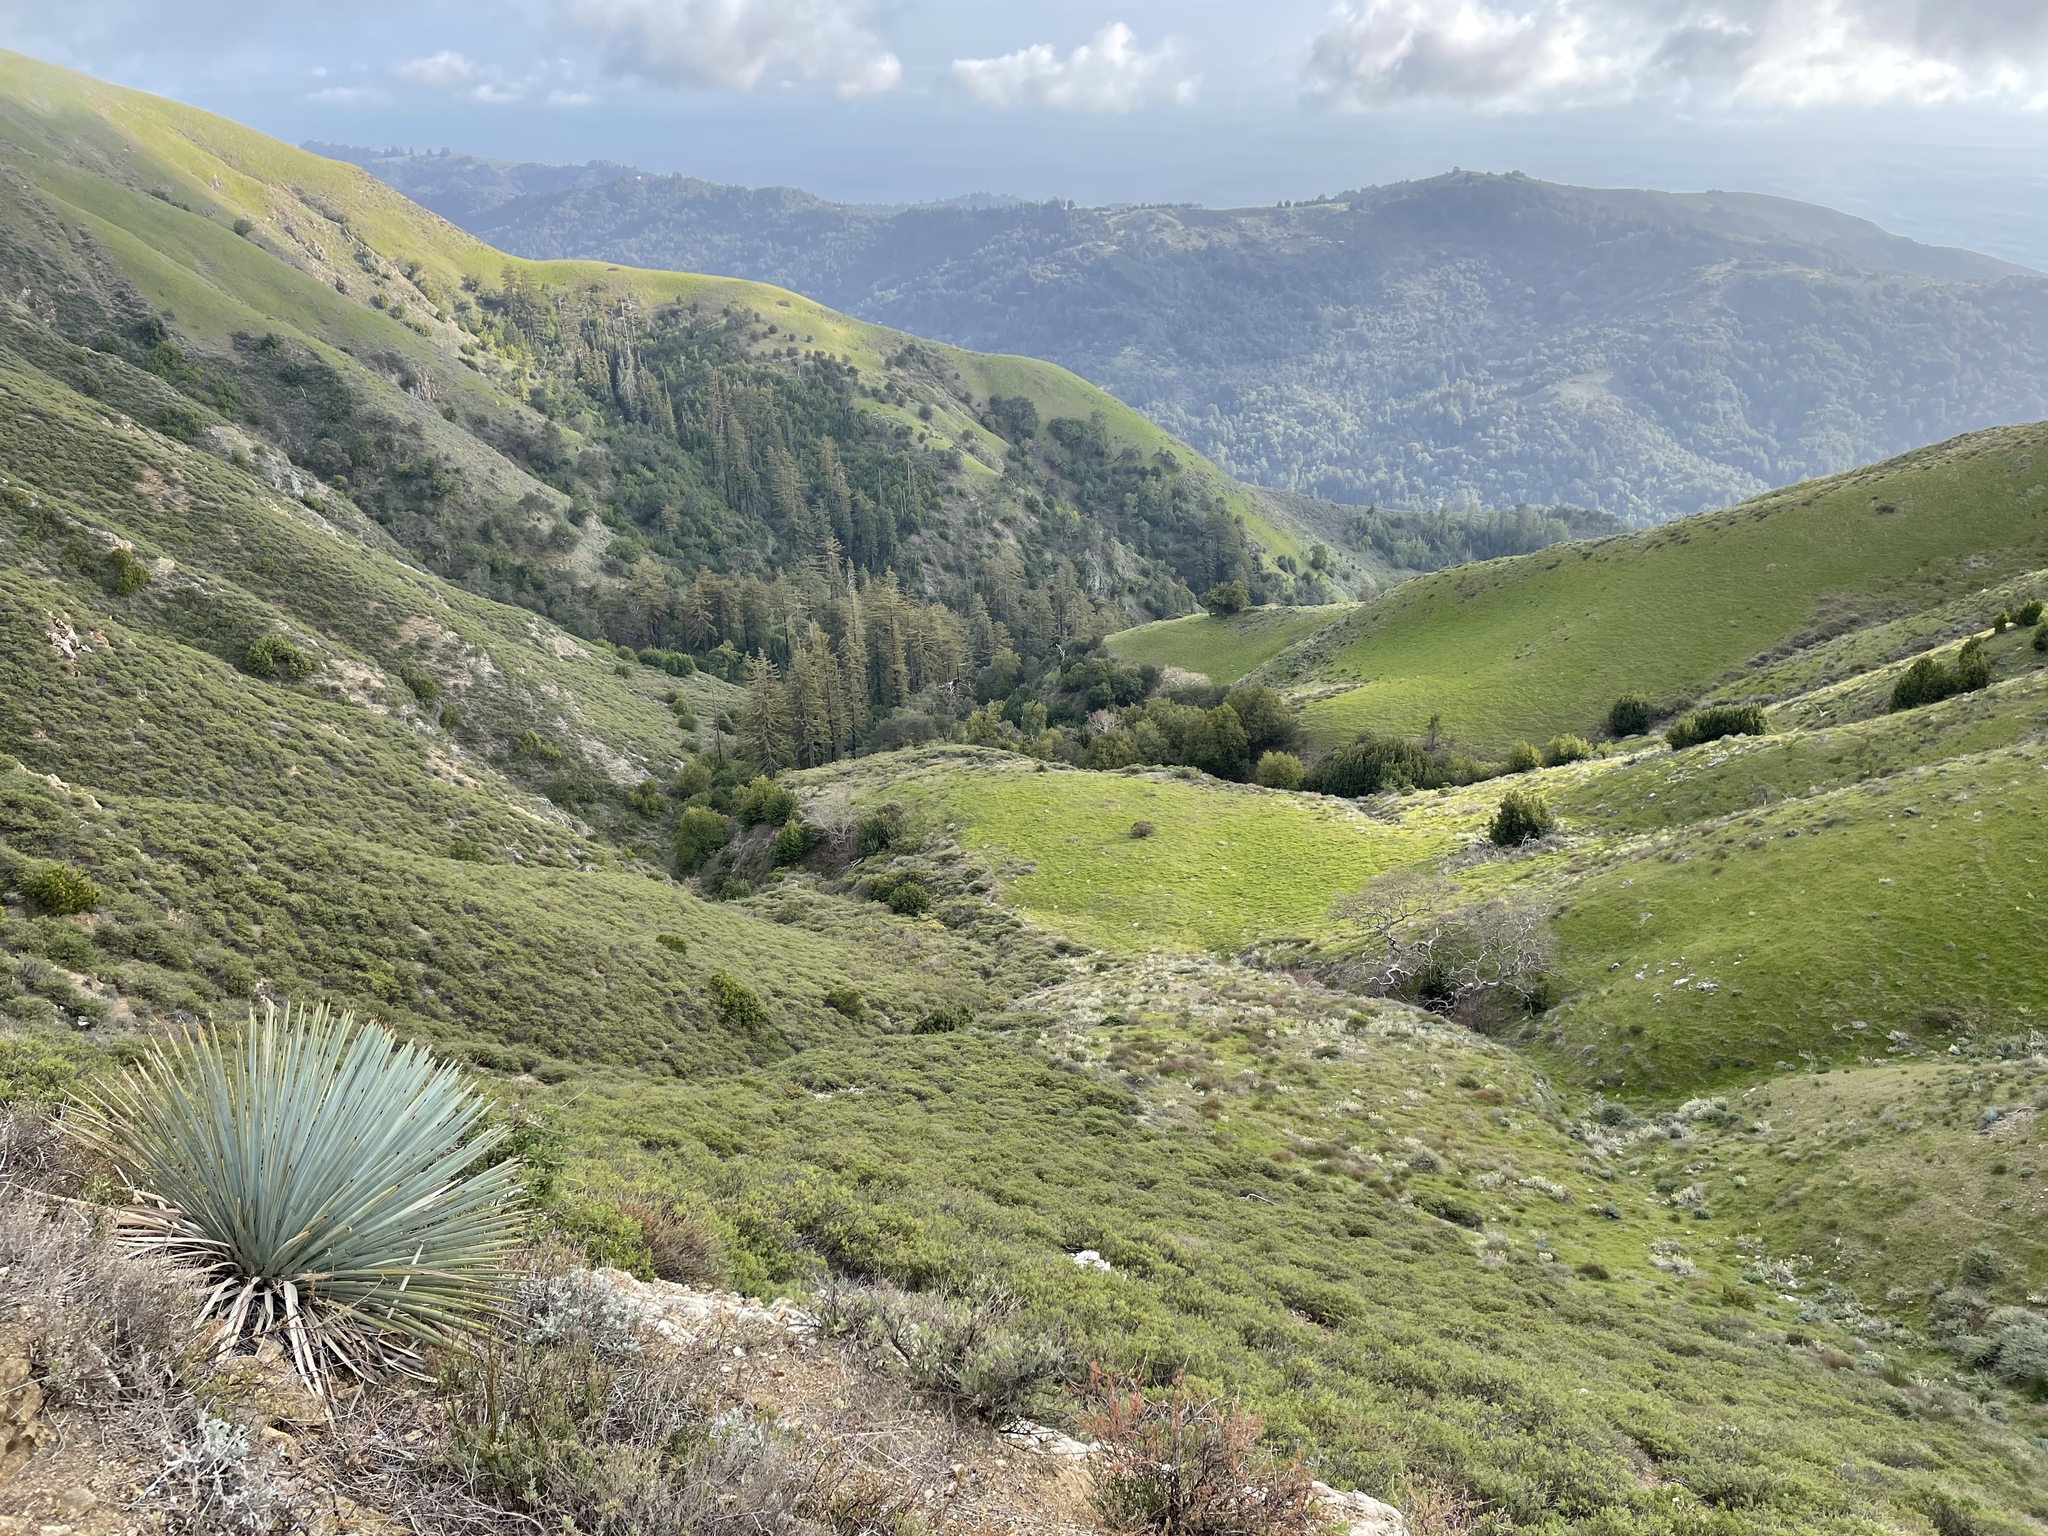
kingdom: Plantae
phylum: Tracheophyta
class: Liliopsida
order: Asparagales
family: Asparagaceae
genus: Hesperoyucca
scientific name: Hesperoyucca whipplei
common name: Our lord's-candle
